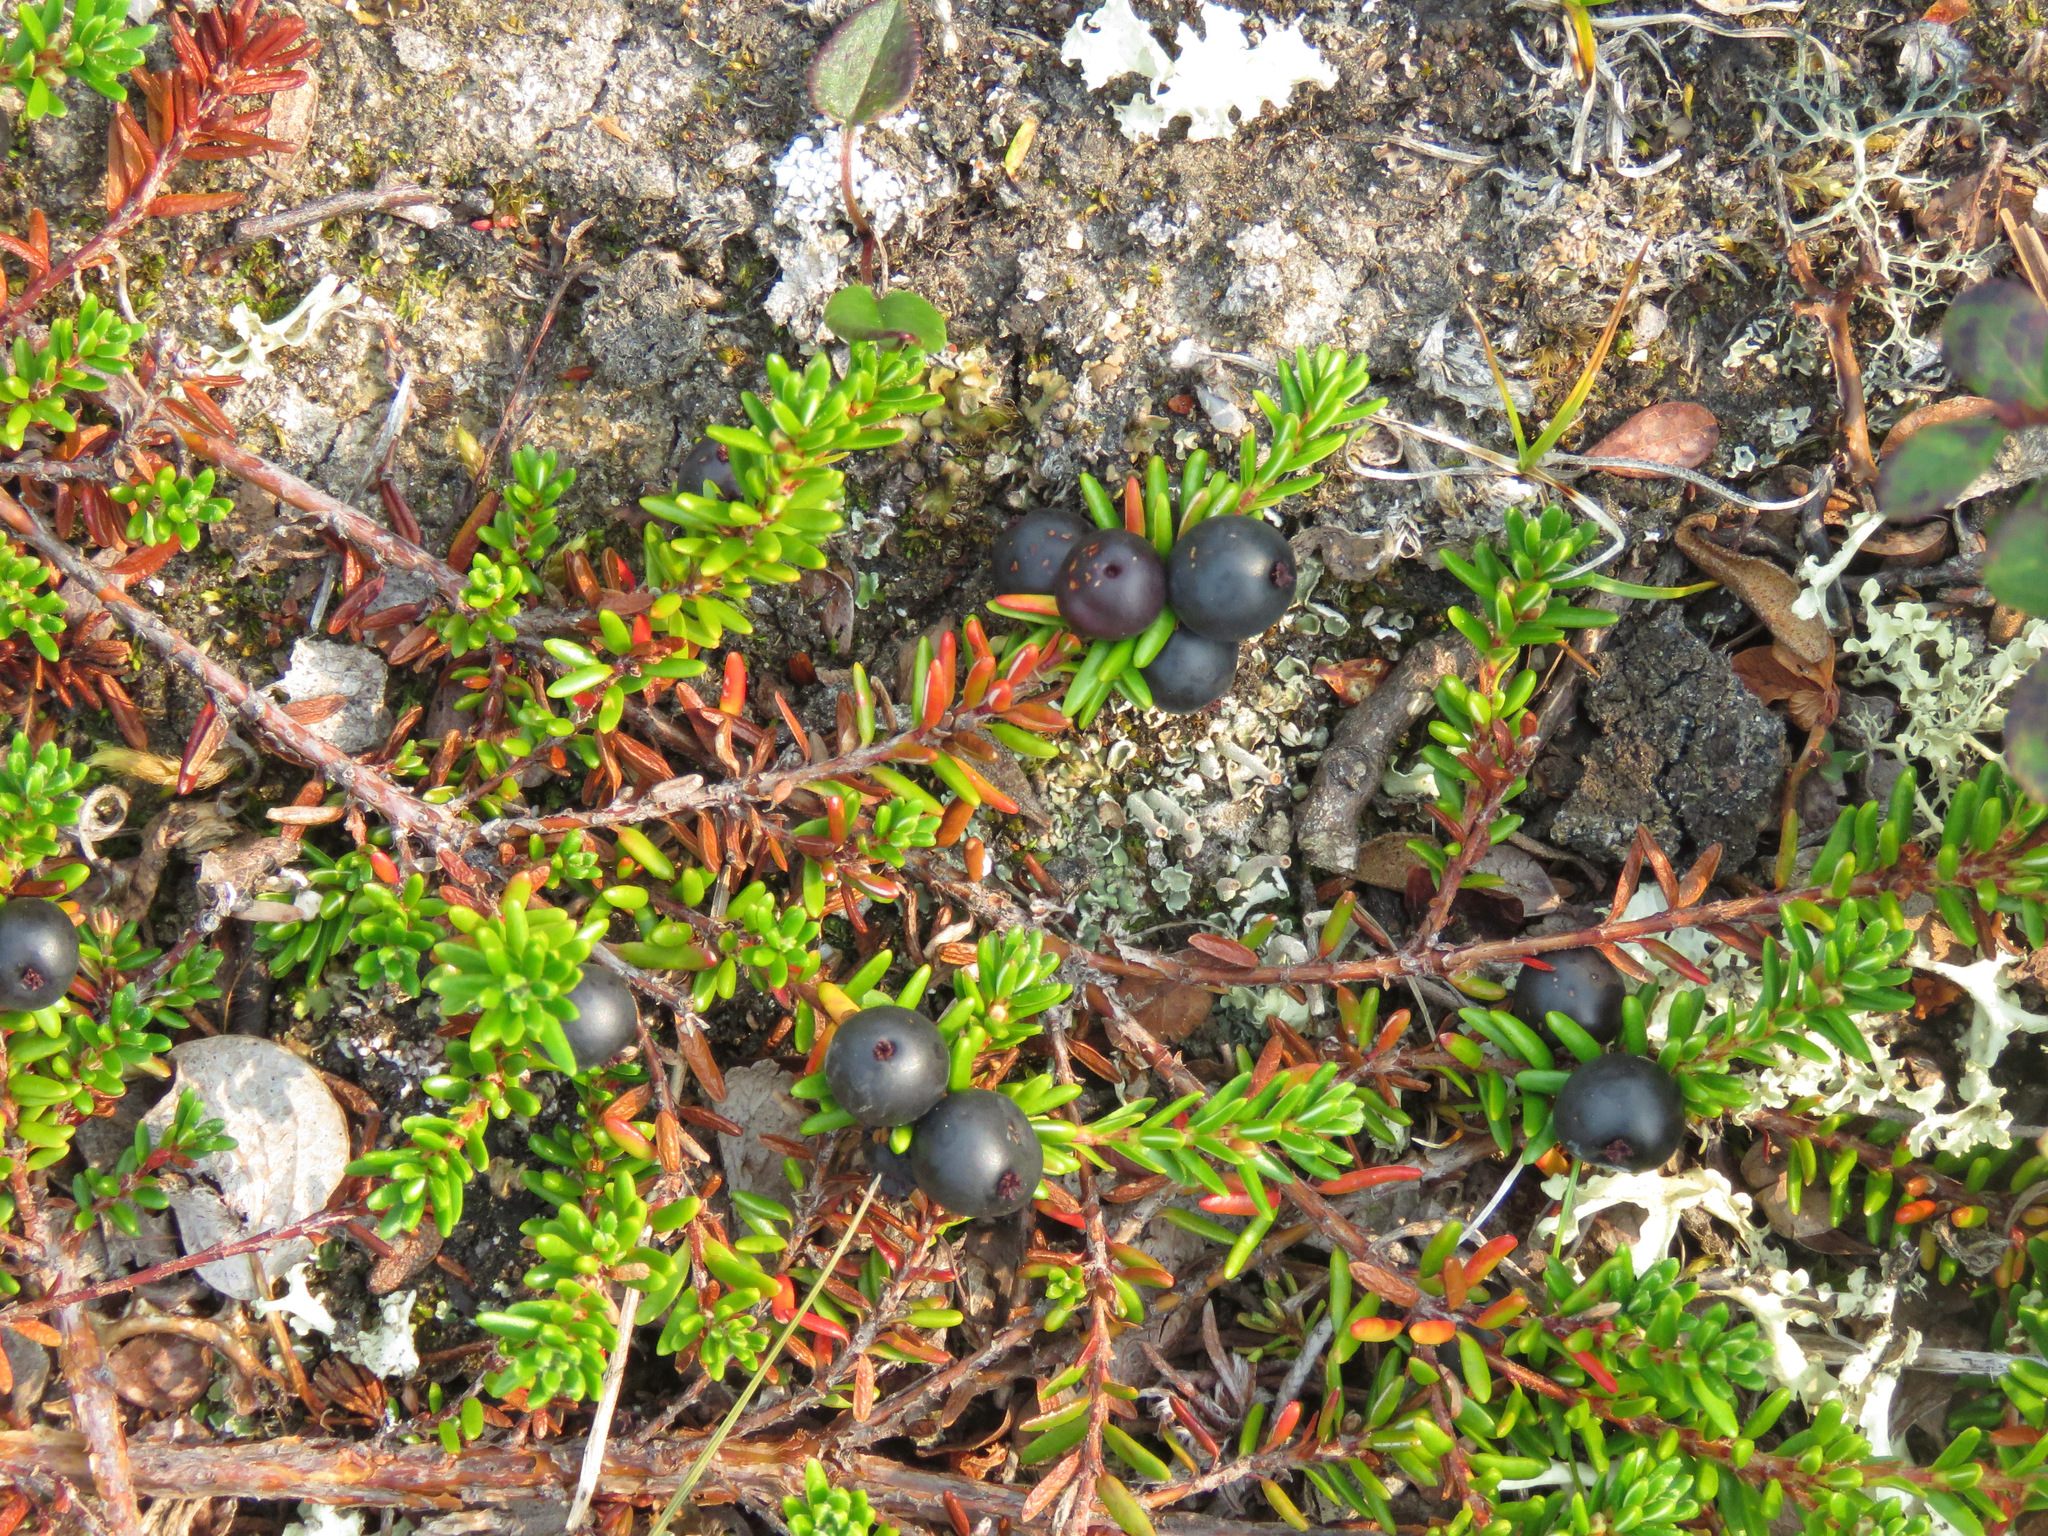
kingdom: Plantae
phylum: Tracheophyta
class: Magnoliopsida
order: Ericales
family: Ericaceae
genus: Empetrum
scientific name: Empetrum nigrum
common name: Black crowberry
